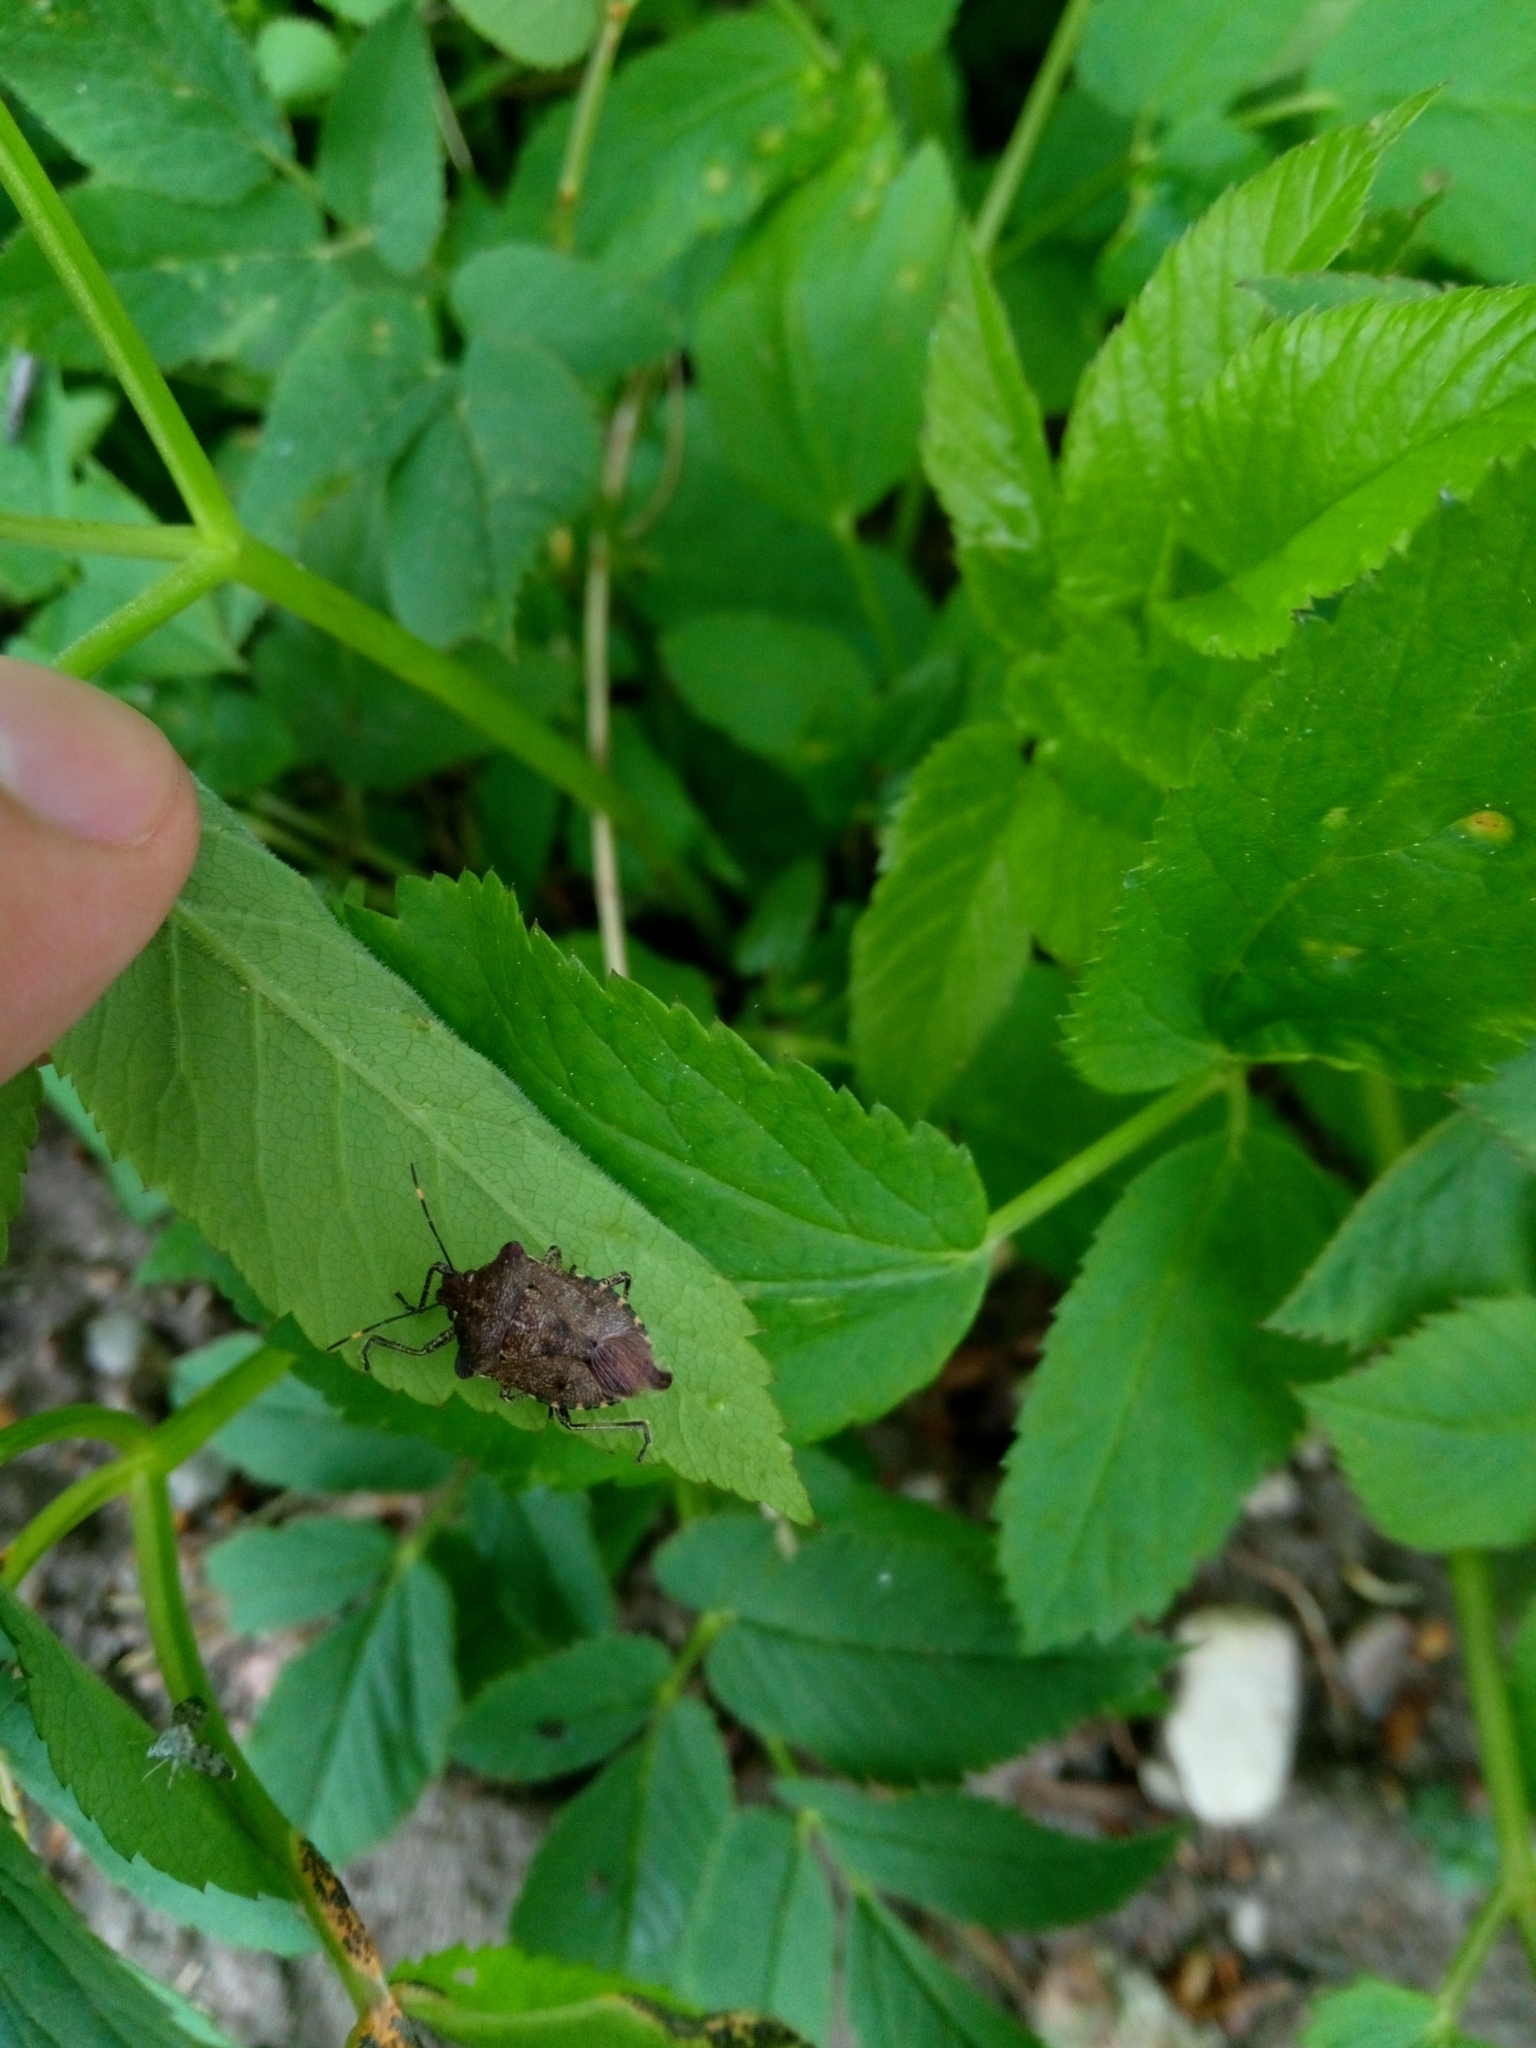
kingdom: Animalia
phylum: Arthropoda
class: Insecta
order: Hemiptera
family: Pentatomidae
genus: Troilus
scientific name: Troilus luridus
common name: Bronze shieldbug
